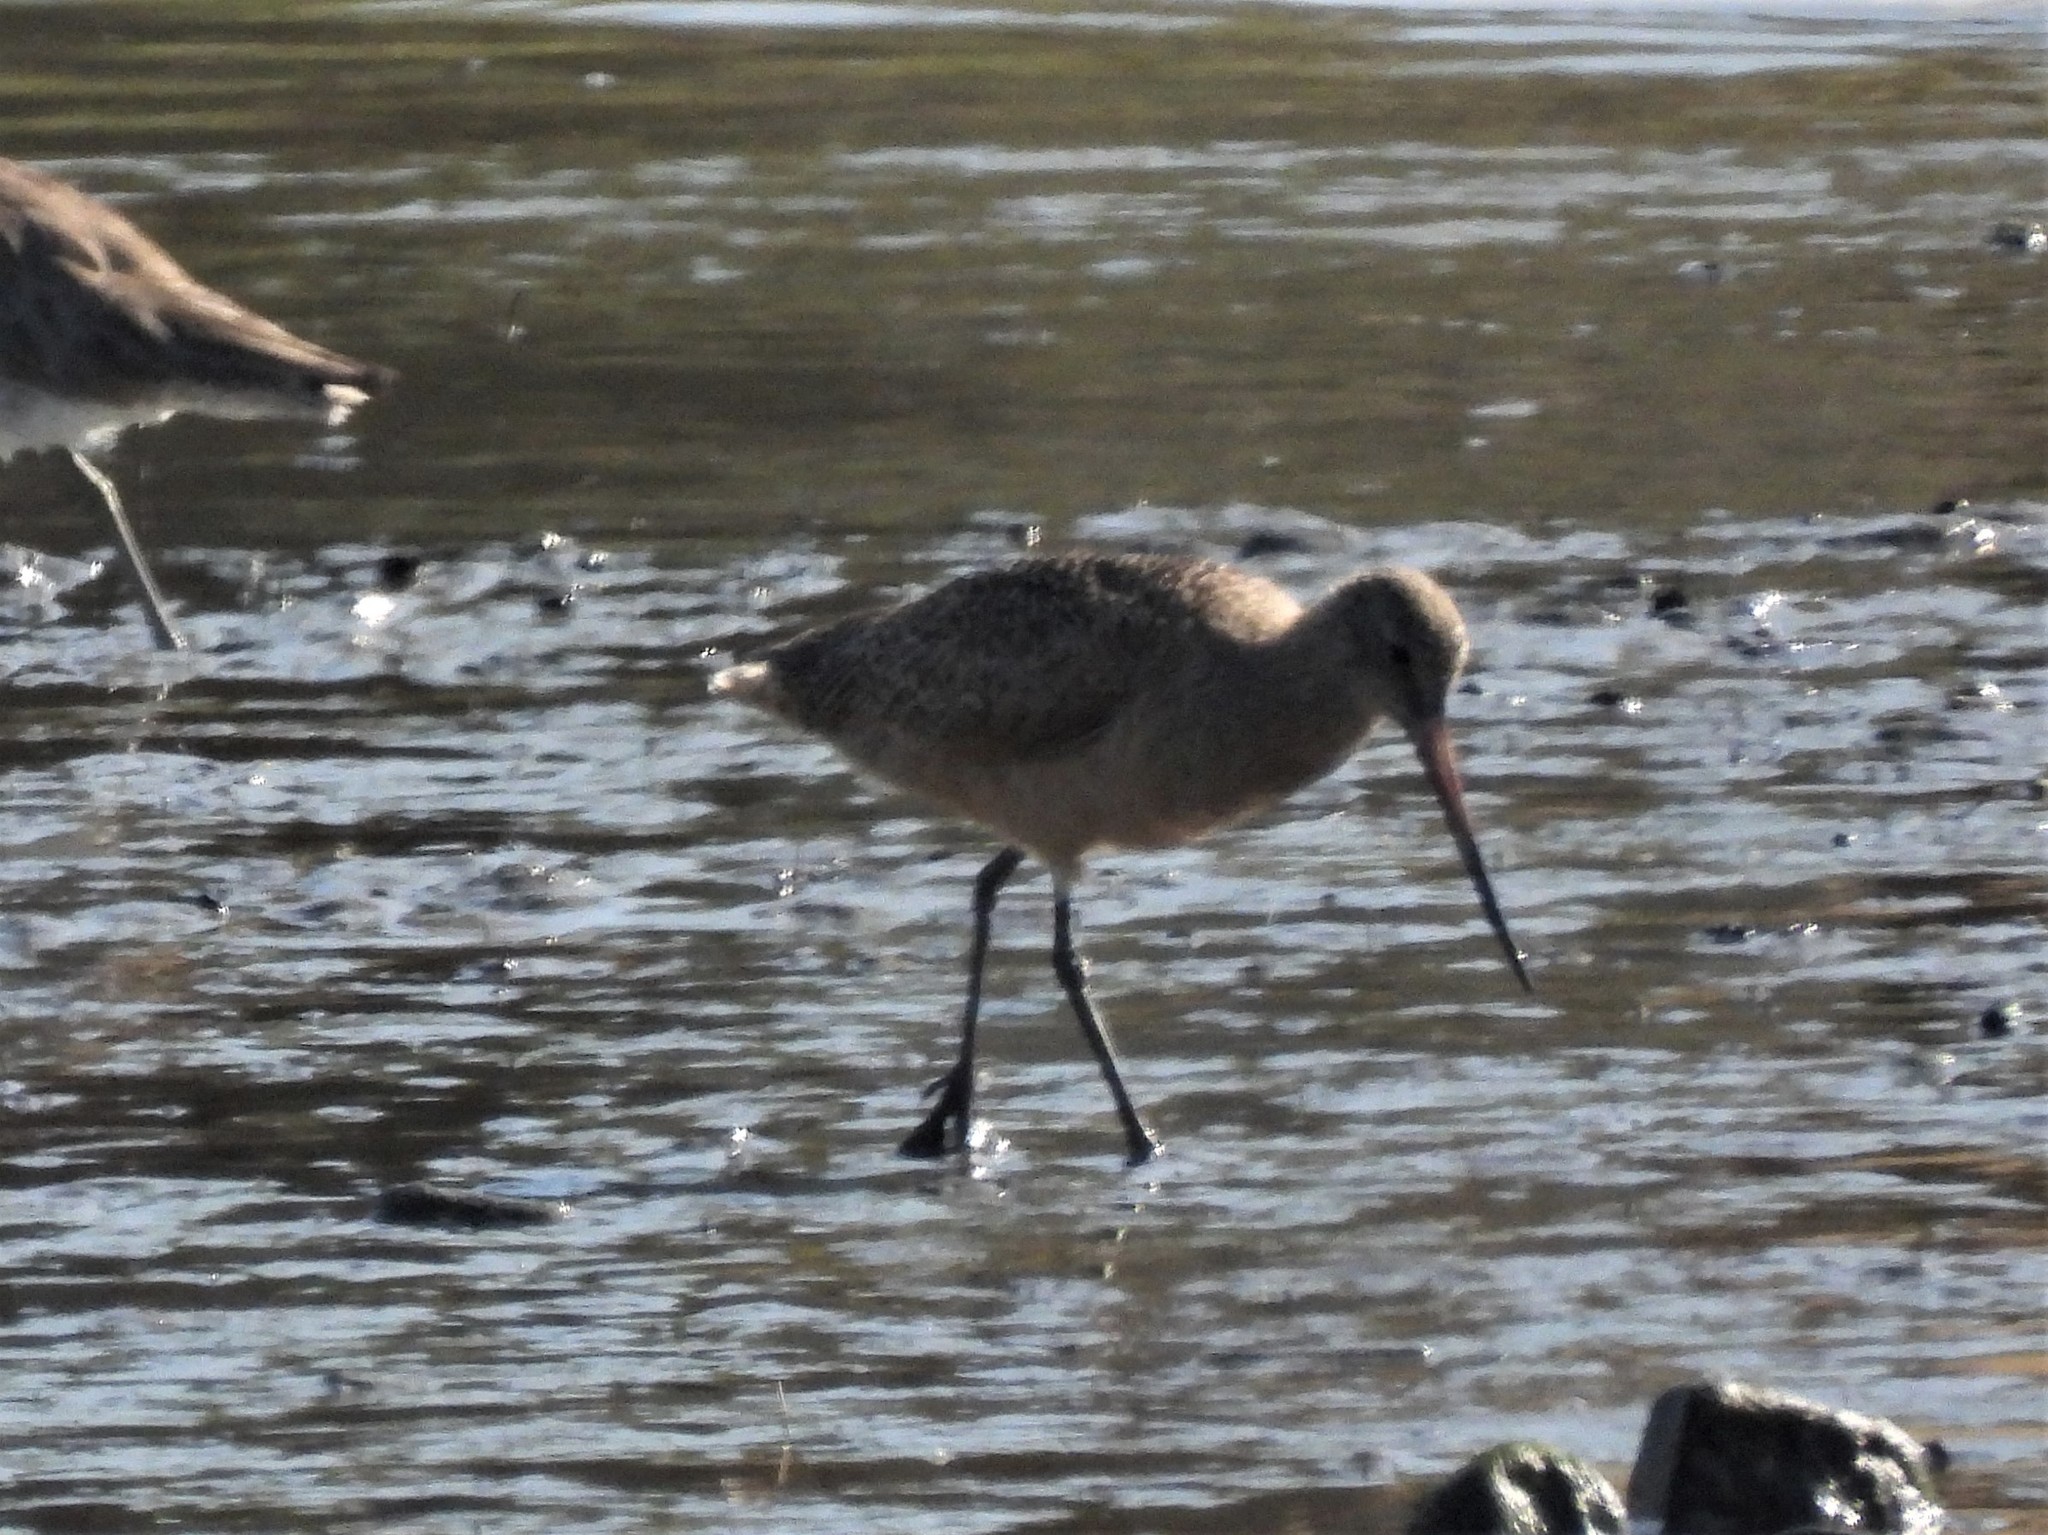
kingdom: Animalia
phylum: Chordata
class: Aves
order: Charadriiformes
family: Scolopacidae
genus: Limosa
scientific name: Limosa fedoa
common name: Marbled godwit
